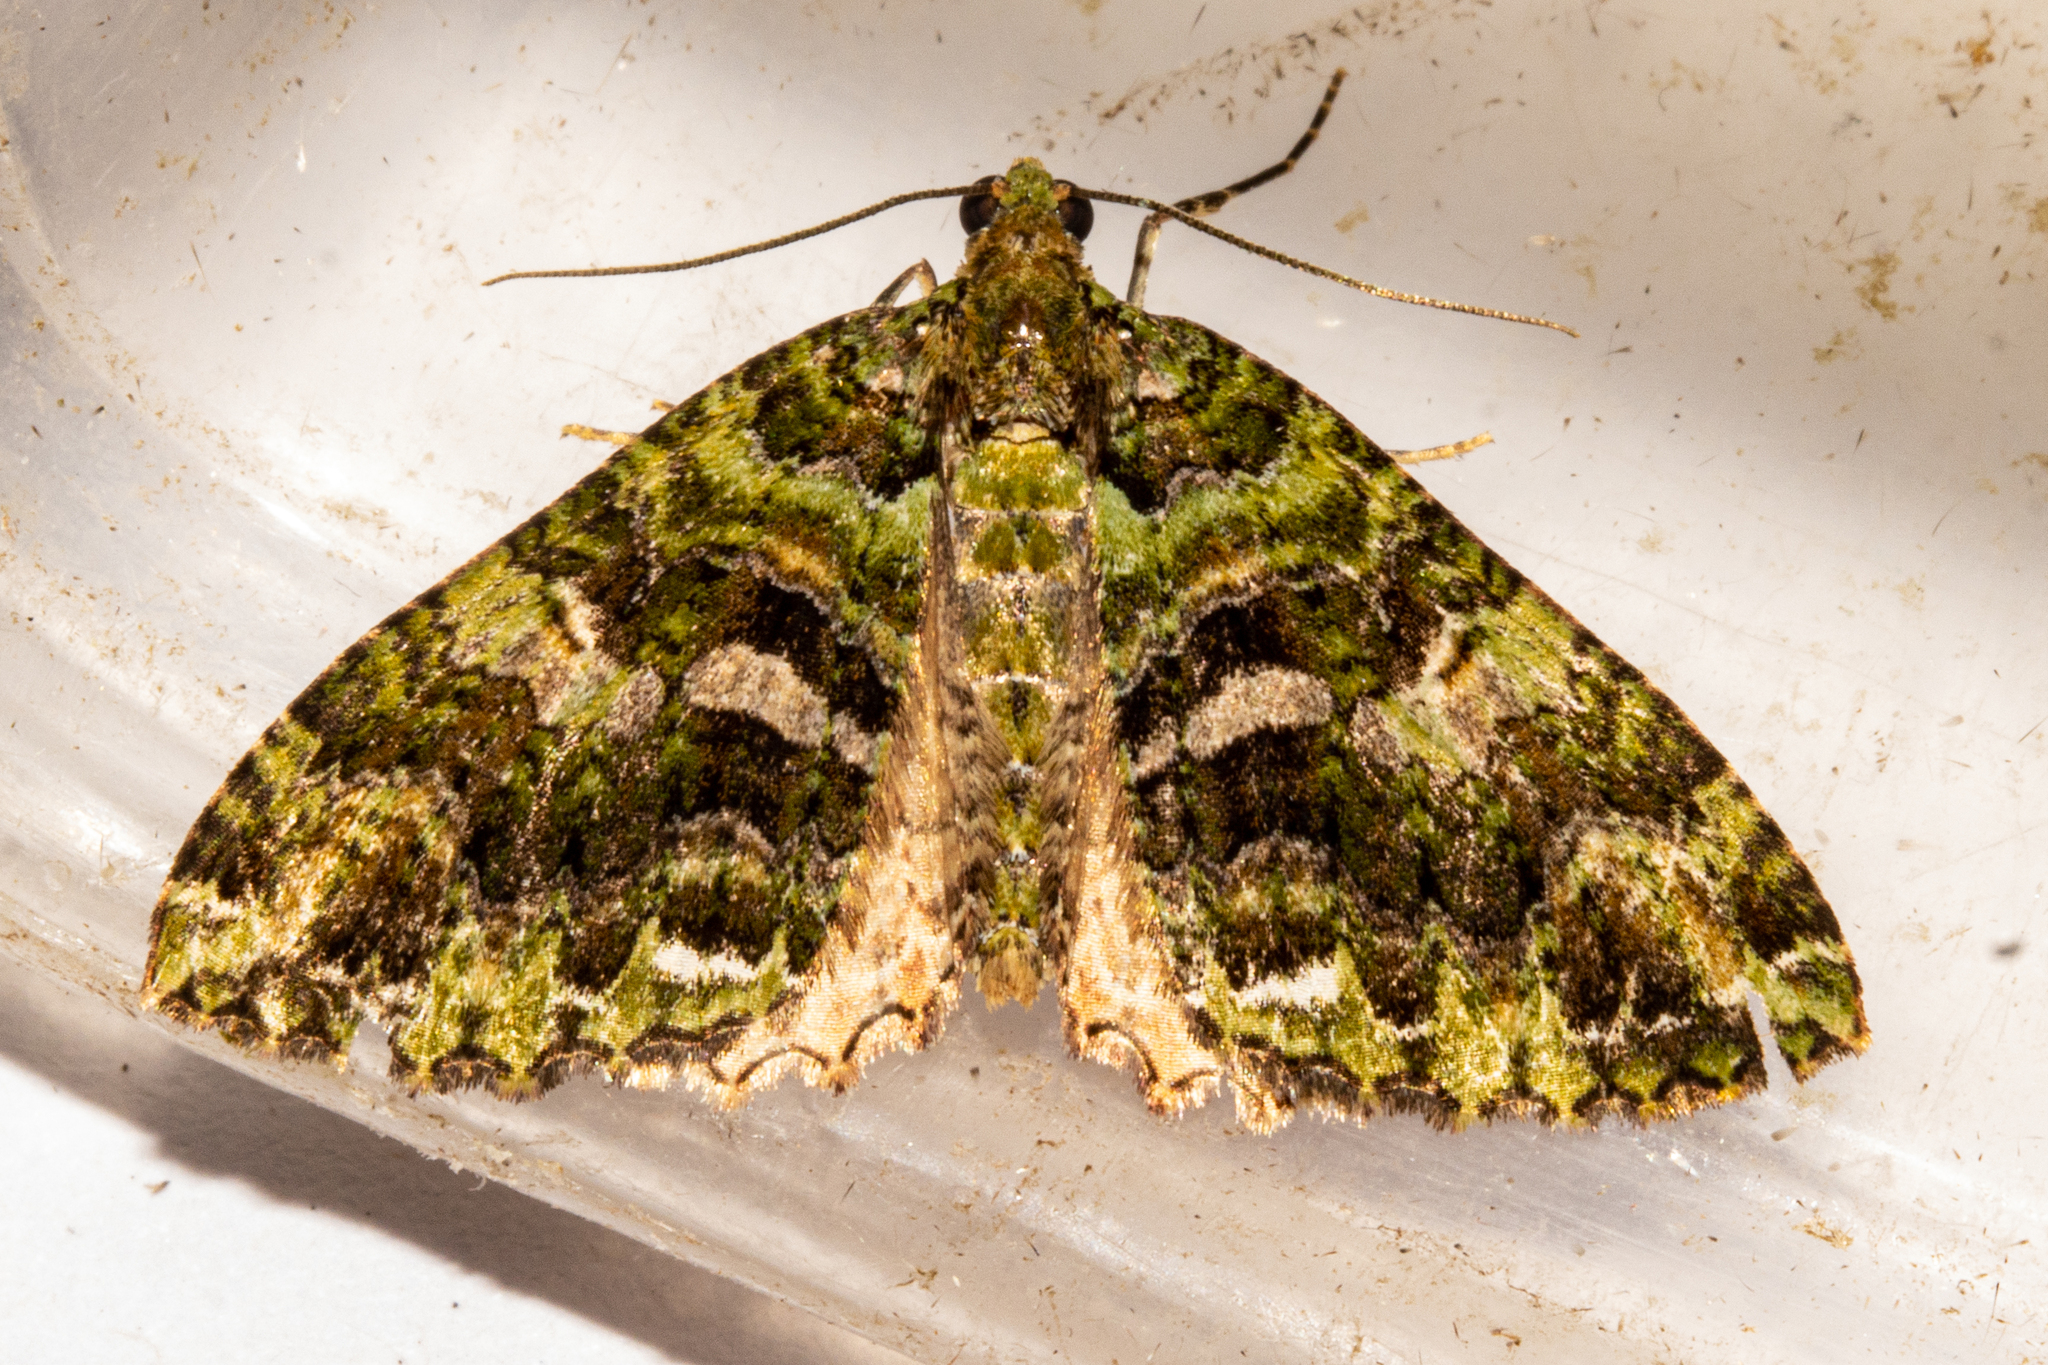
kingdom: Animalia
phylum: Arthropoda
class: Insecta
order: Lepidoptera
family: Geometridae
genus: Austrocidaria
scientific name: Austrocidaria similata
